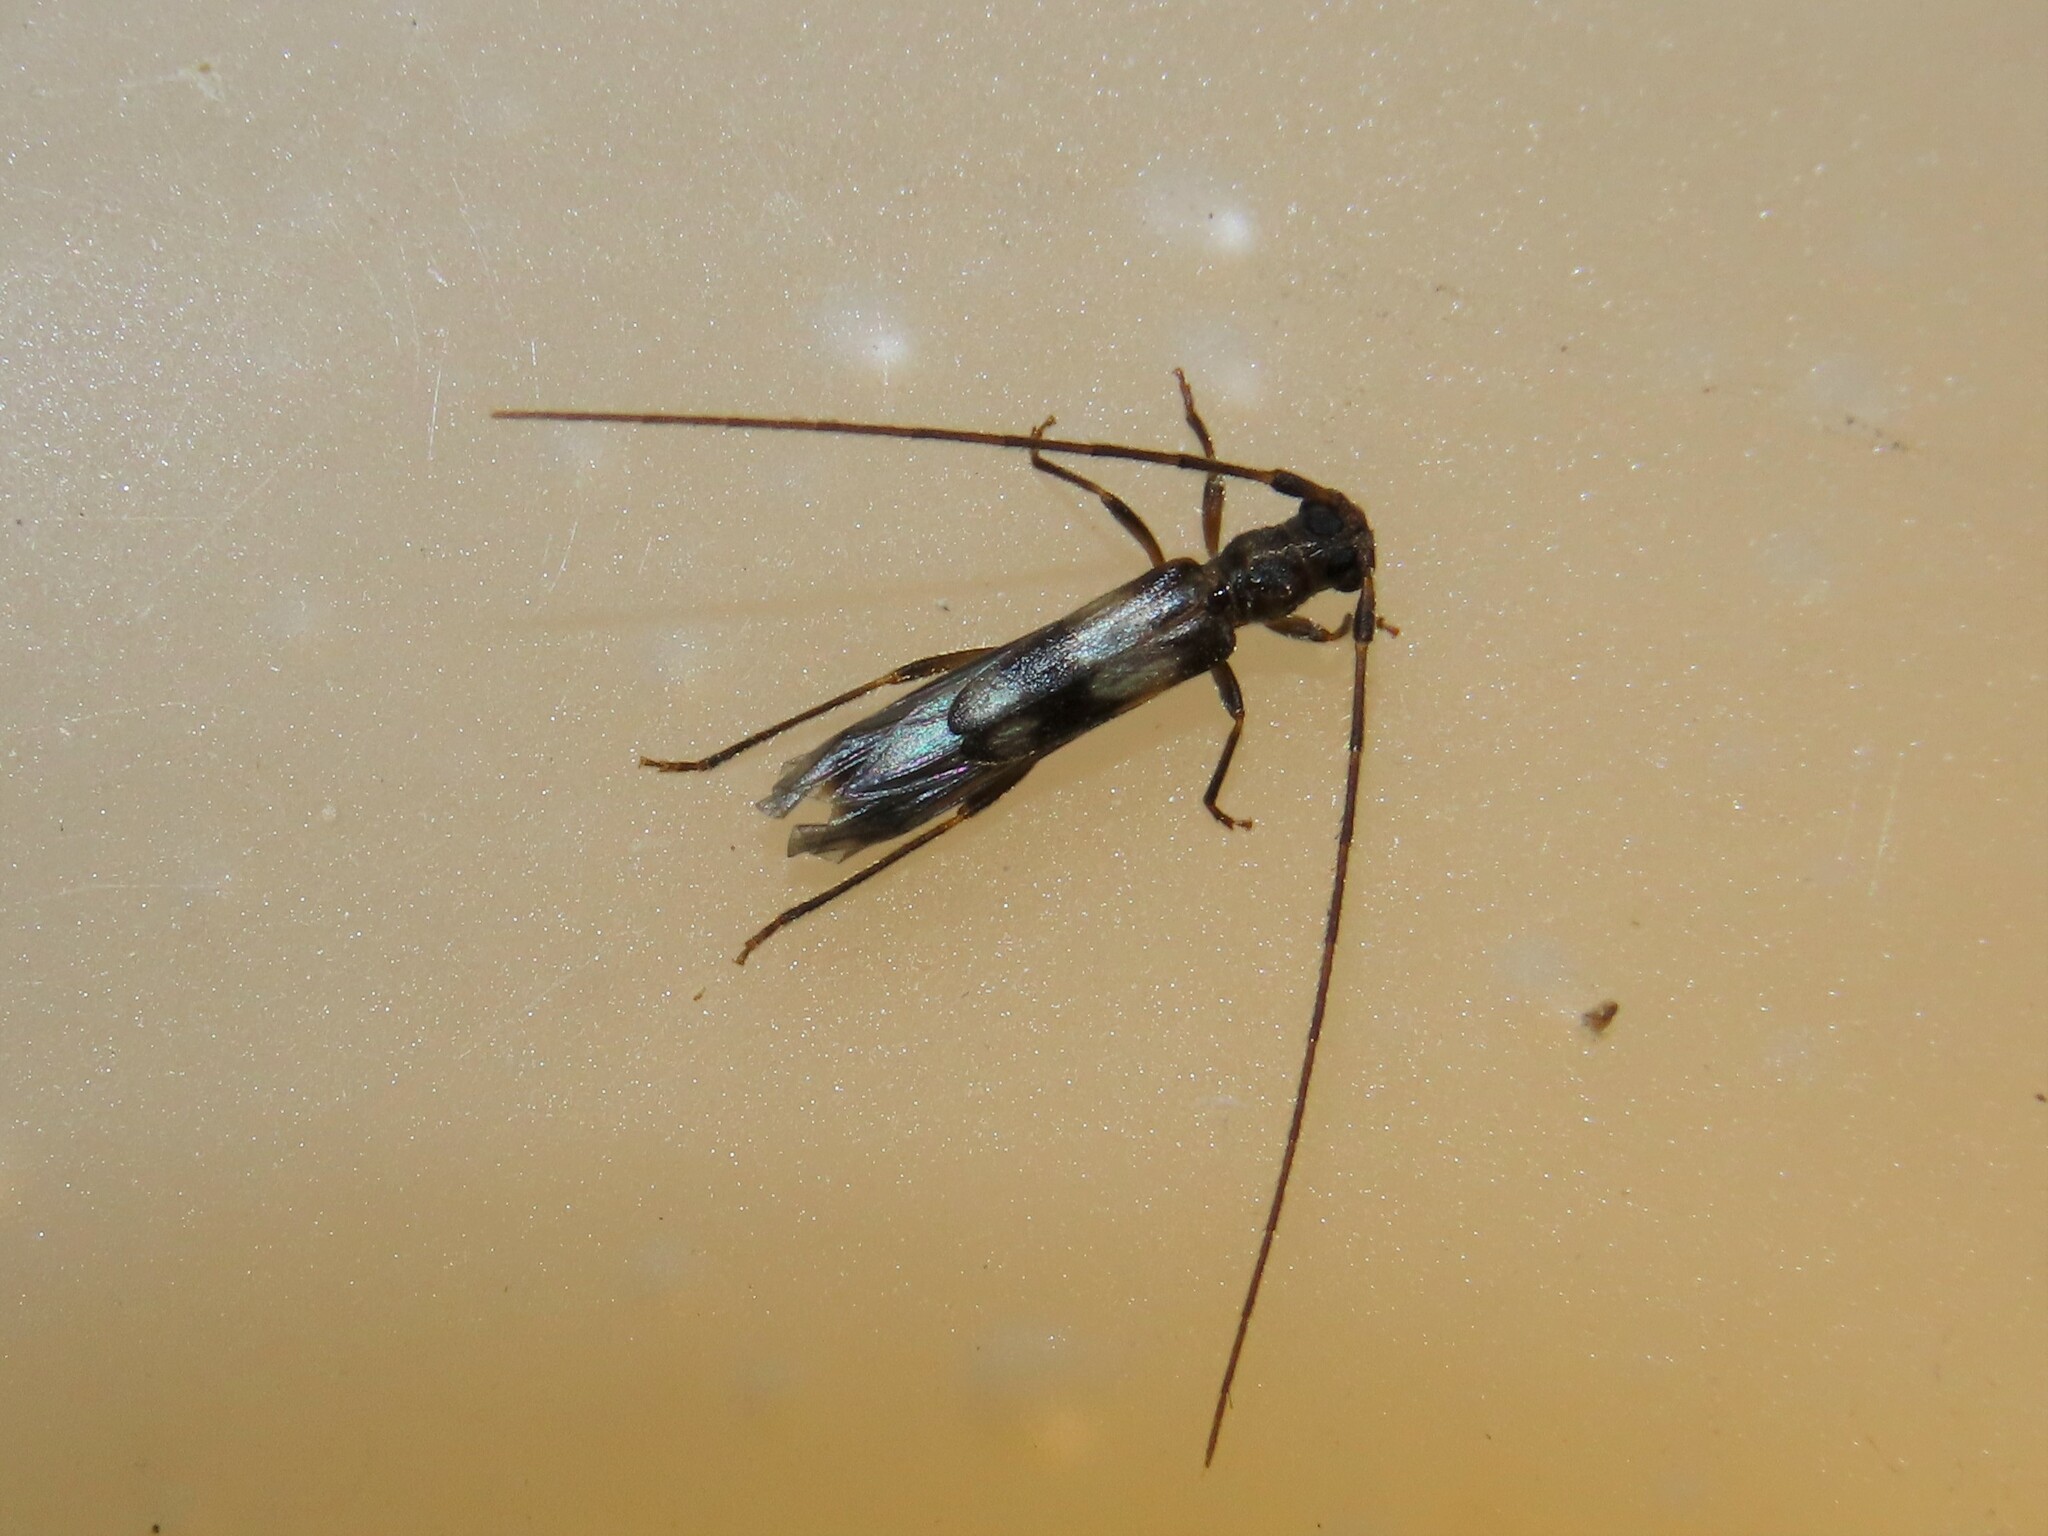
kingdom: Animalia
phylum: Arthropoda
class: Insecta
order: Coleoptera
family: Cerambycidae
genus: Methia
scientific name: Methia necydalea
